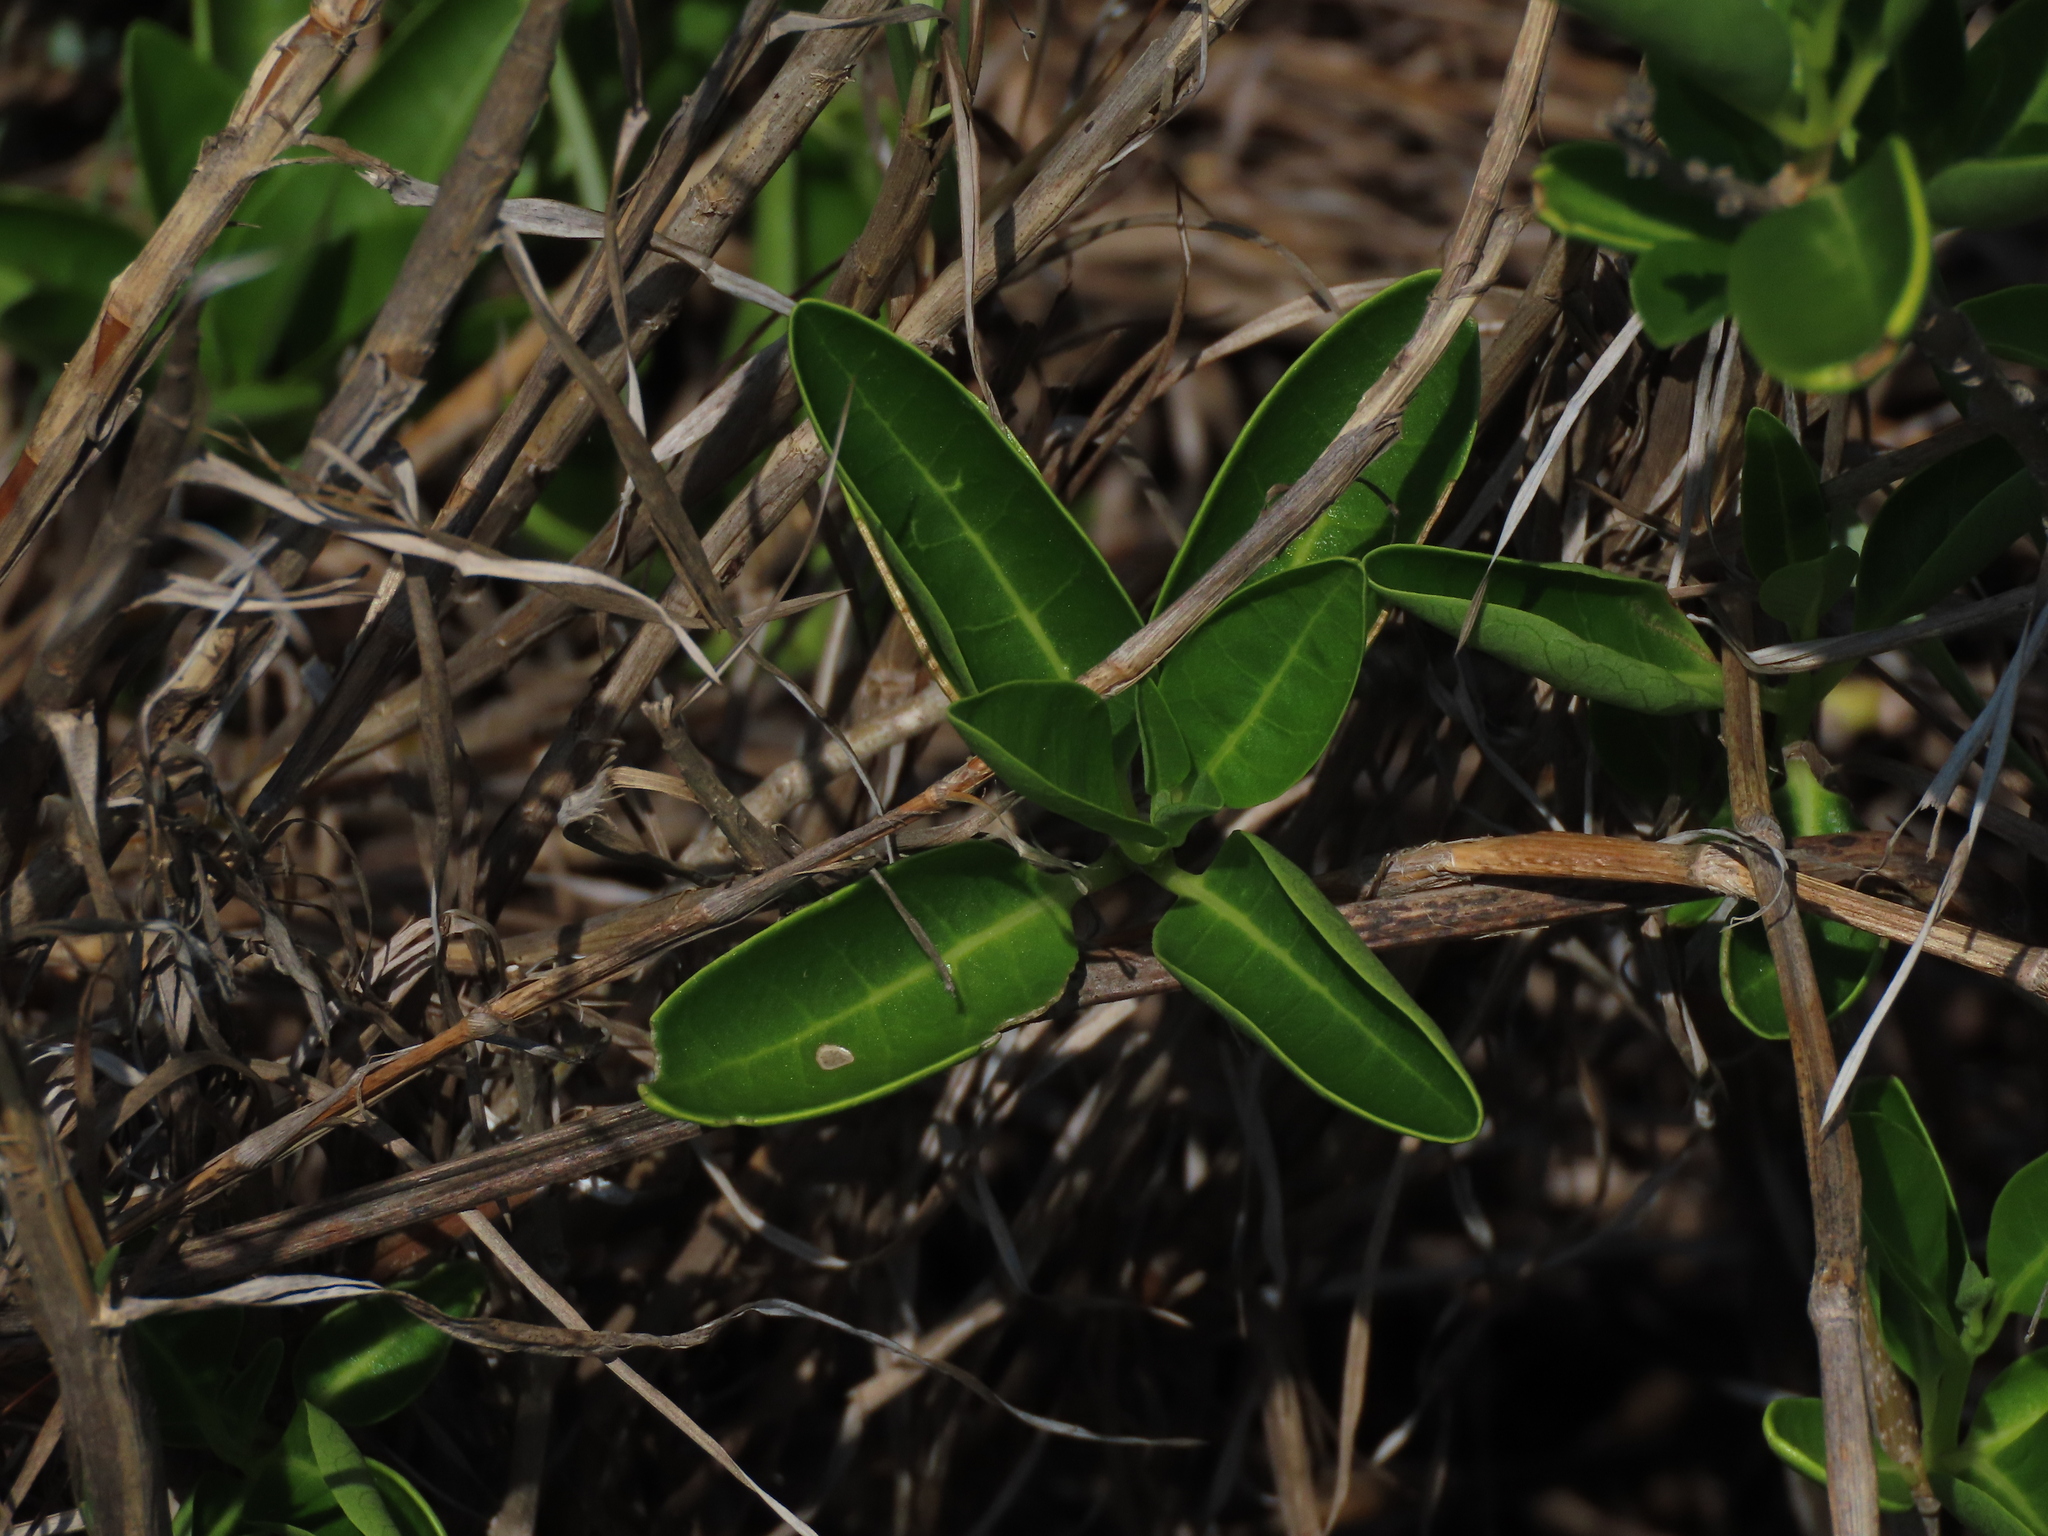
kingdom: Plantae
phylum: Tracheophyta
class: Magnoliopsida
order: Lamiales
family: Lamiaceae
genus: Volkameria
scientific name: Volkameria inermis
